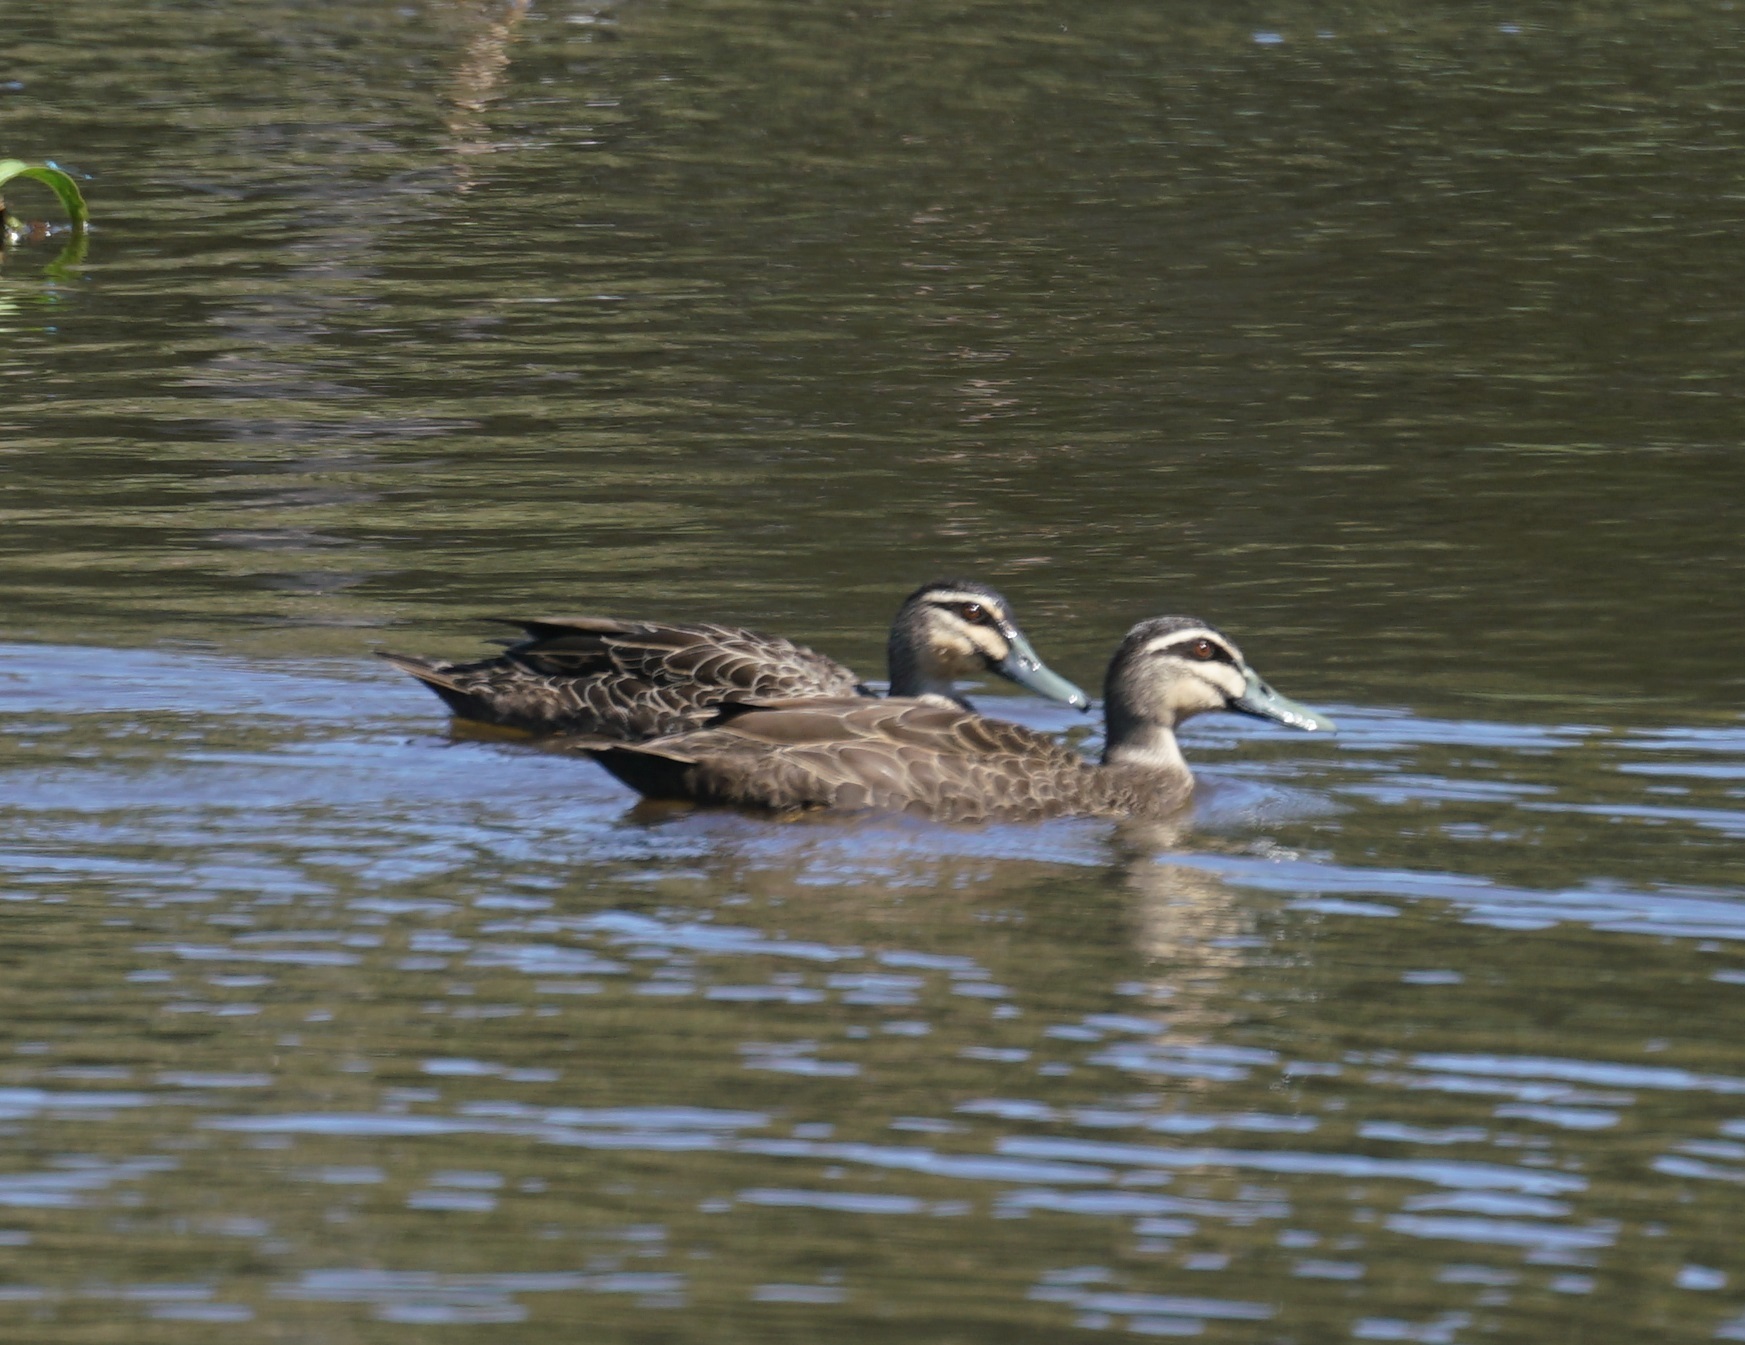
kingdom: Animalia
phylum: Chordata
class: Aves
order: Anseriformes
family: Anatidae
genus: Anas
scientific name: Anas superciliosa
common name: Pacific black duck
